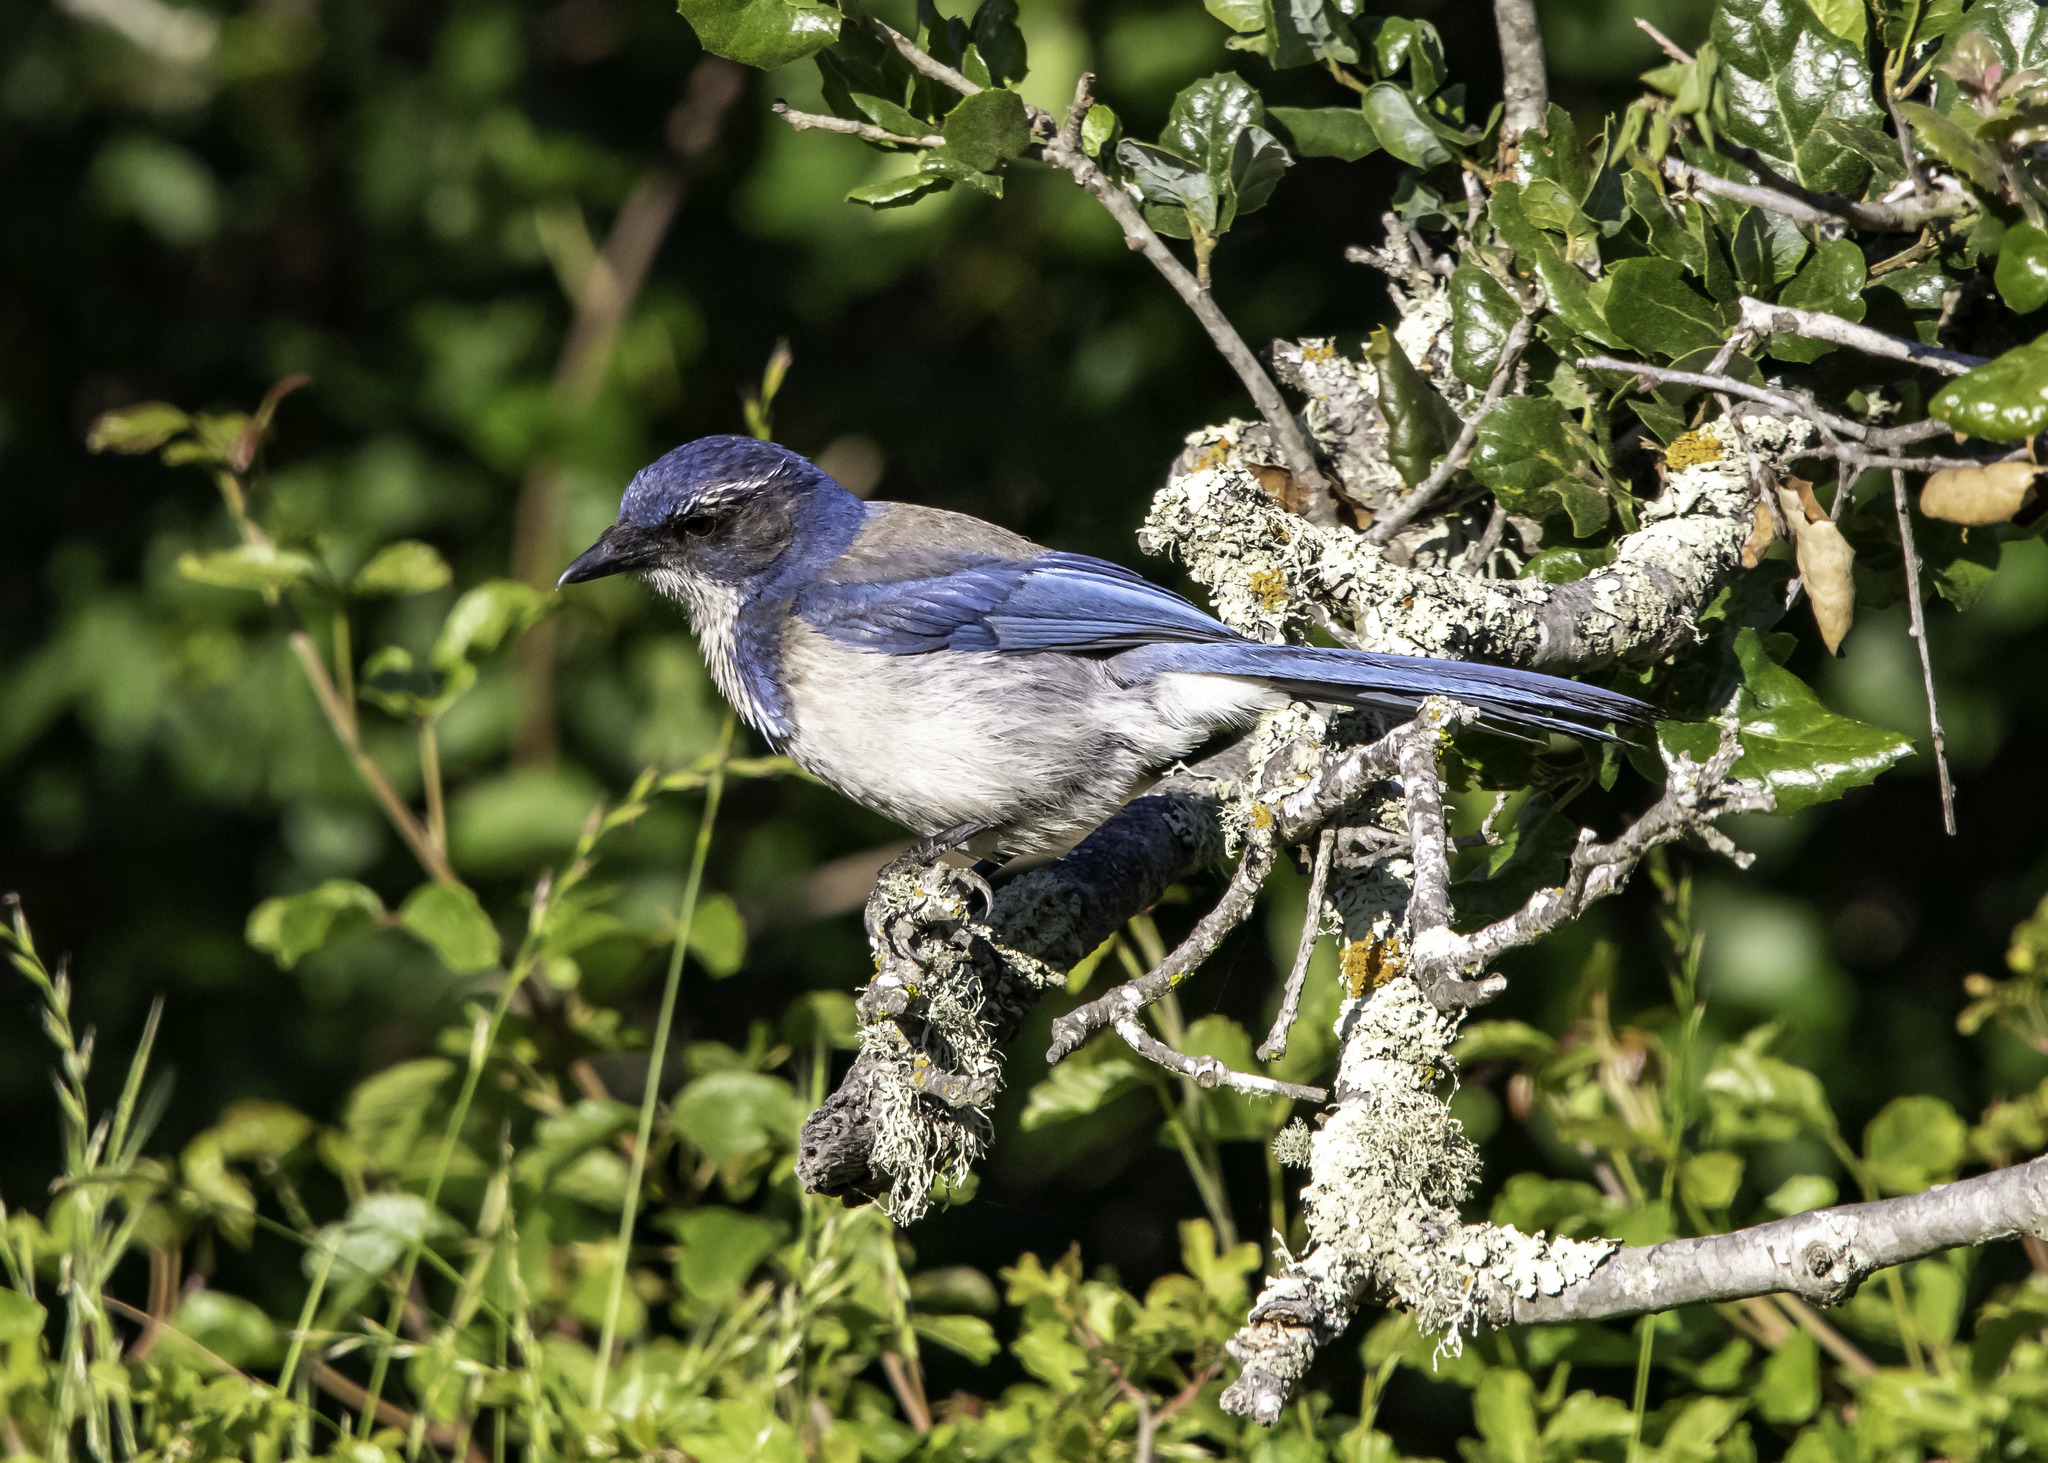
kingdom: Animalia
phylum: Chordata
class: Aves
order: Passeriformes
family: Corvidae
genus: Aphelocoma
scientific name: Aphelocoma californica
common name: California scrub-jay
